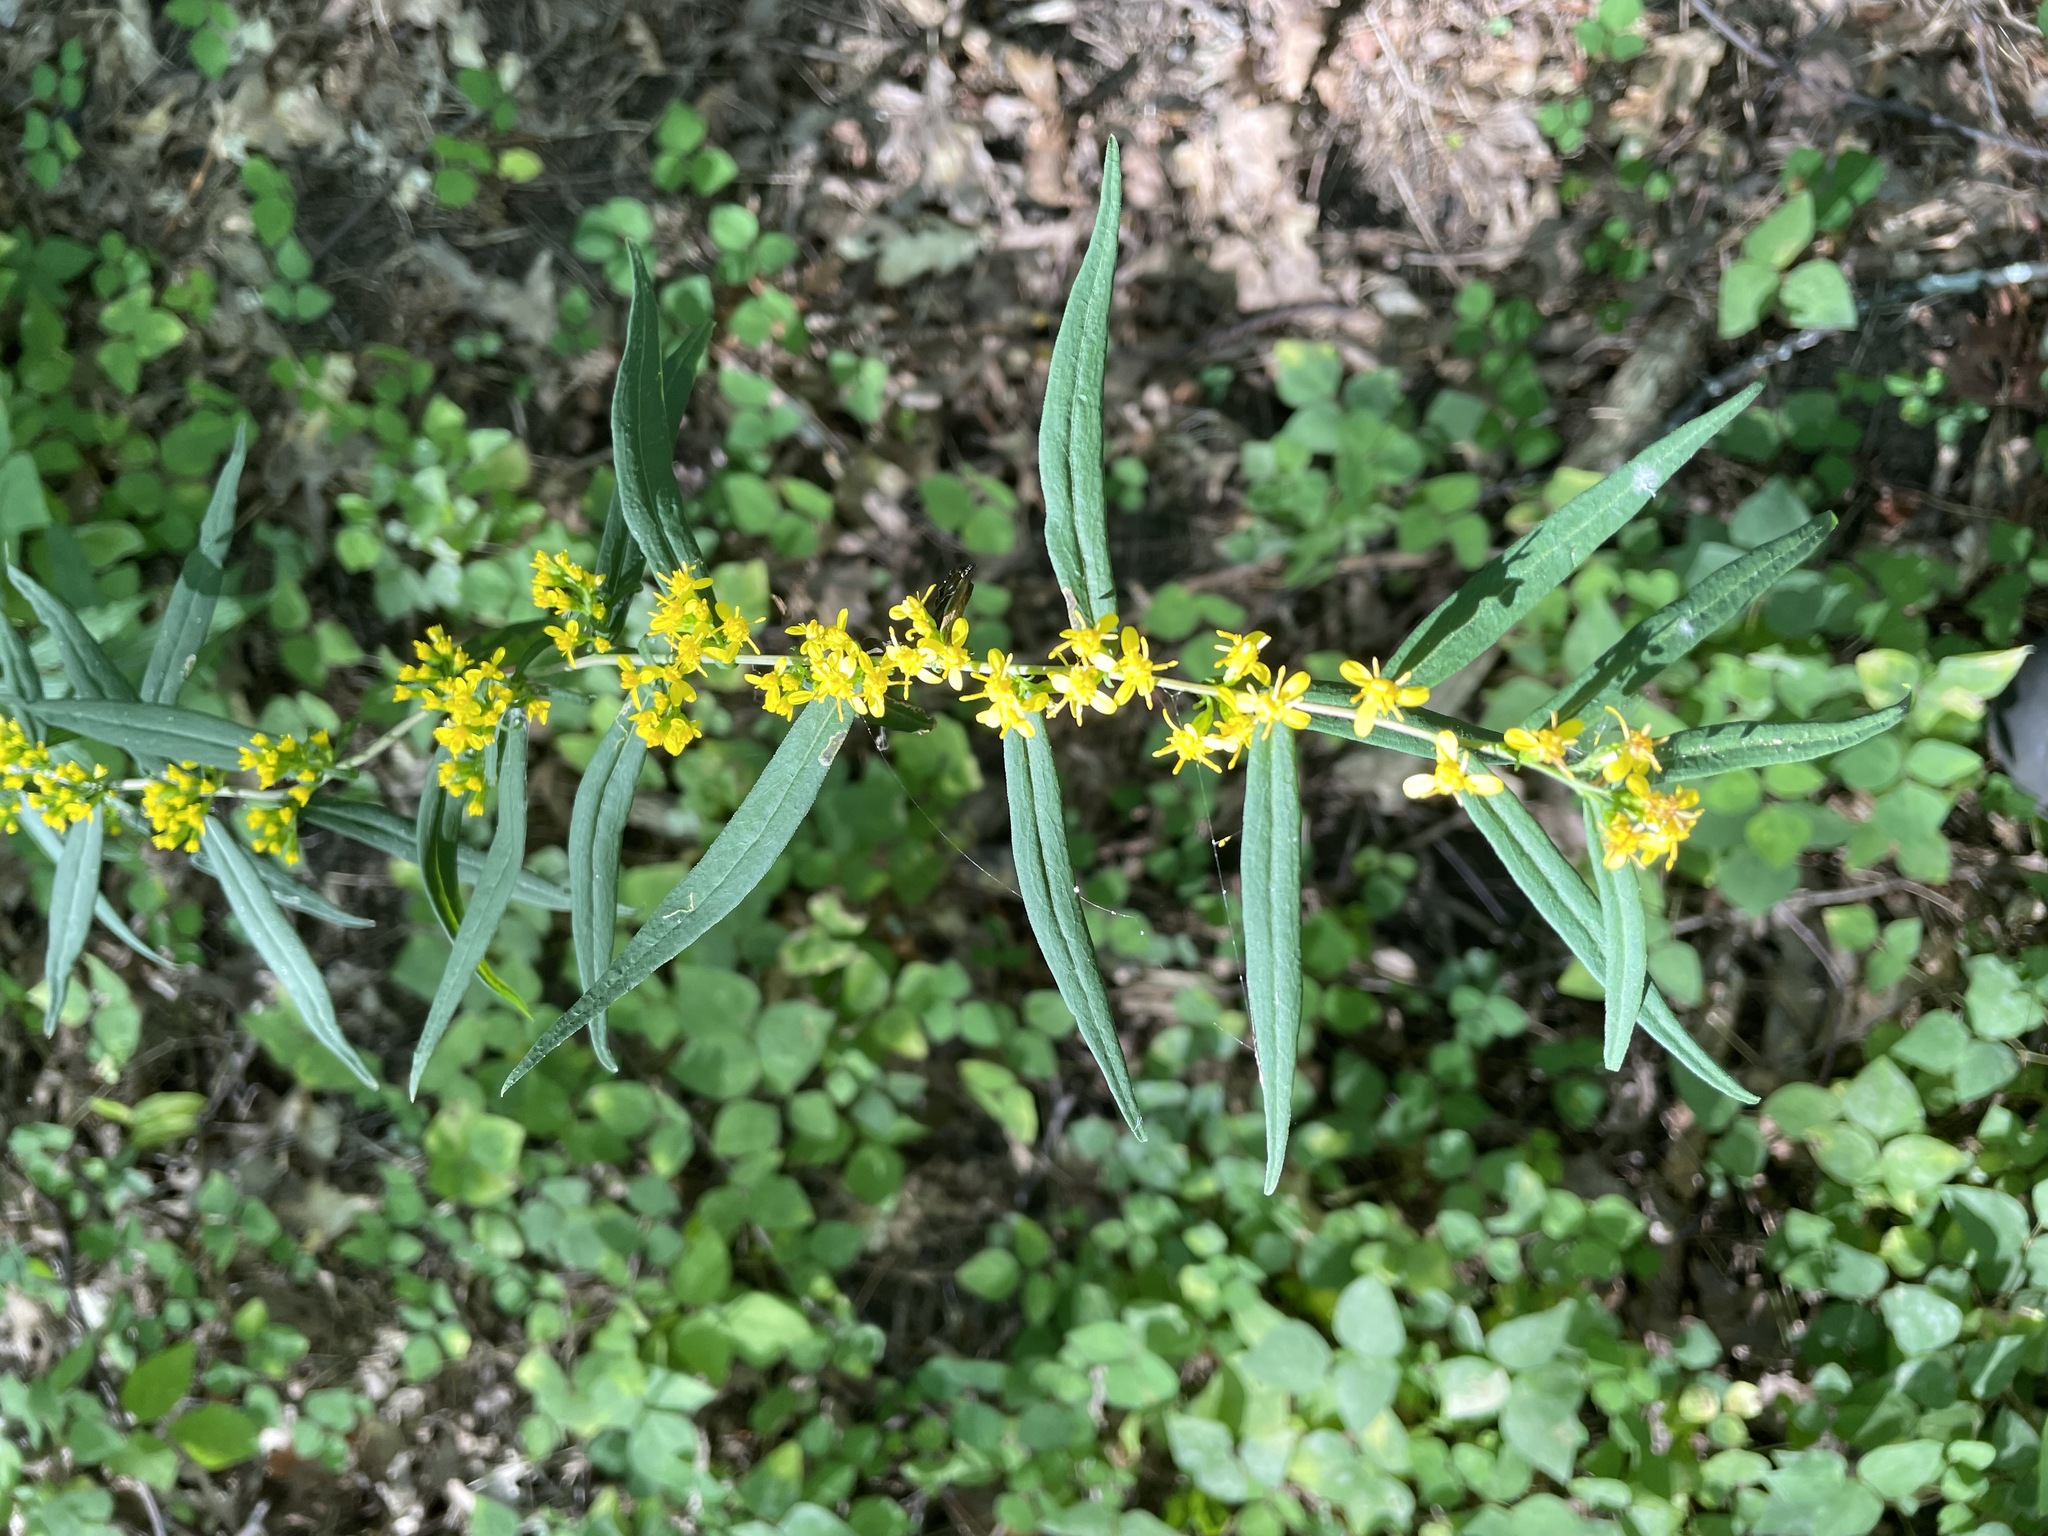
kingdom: Plantae
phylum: Tracheophyta
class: Magnoliopsida
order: Asterales
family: Asteraceae
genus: Solidago
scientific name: Solidago caesia
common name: Woodland goldenrod
